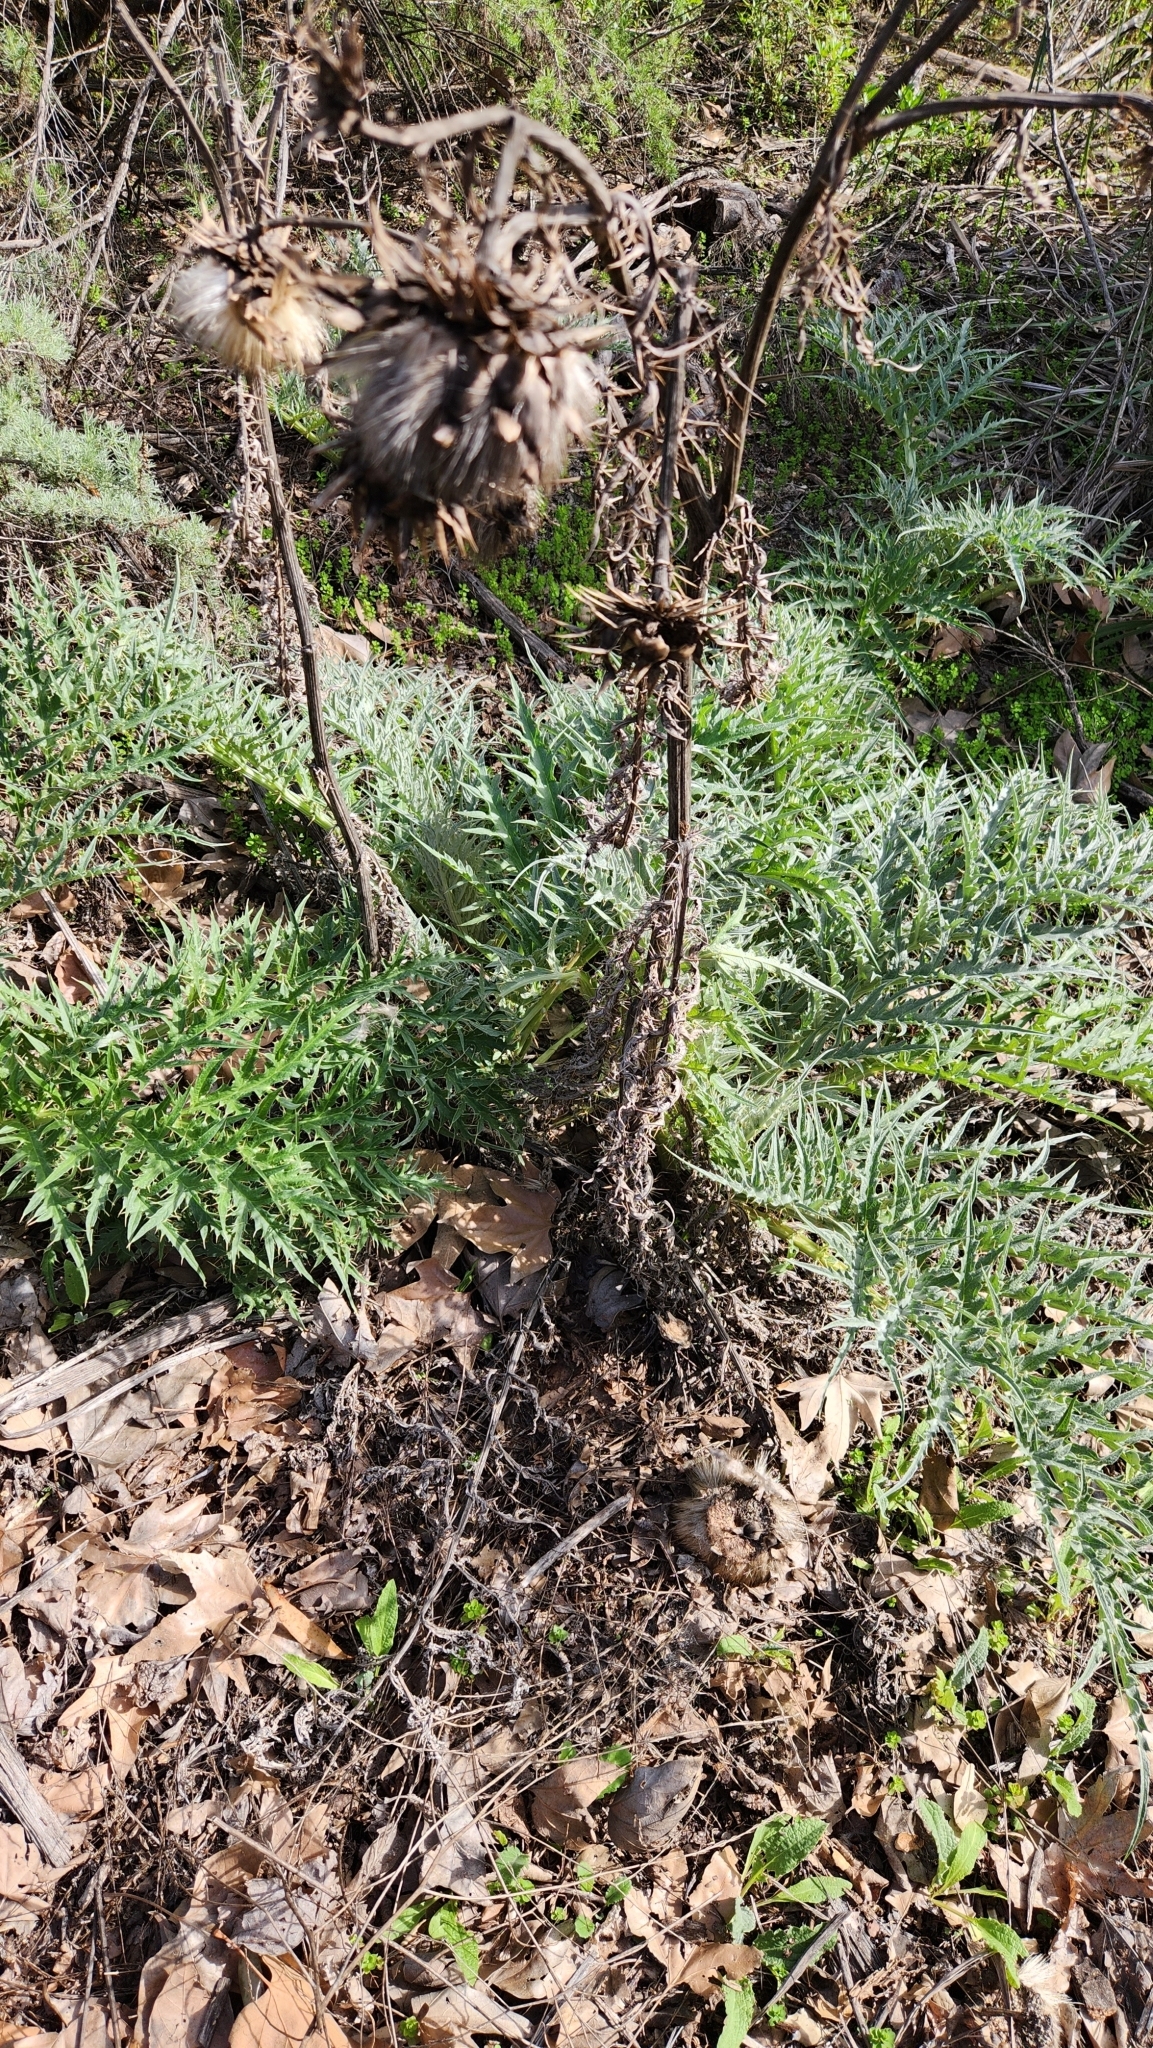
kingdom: Plantae
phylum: Tracheophyta
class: Magnoliopsida
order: Asterales
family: Asteraceae
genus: Cynara
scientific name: Cynara cardunculus
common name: Globe artichoke
